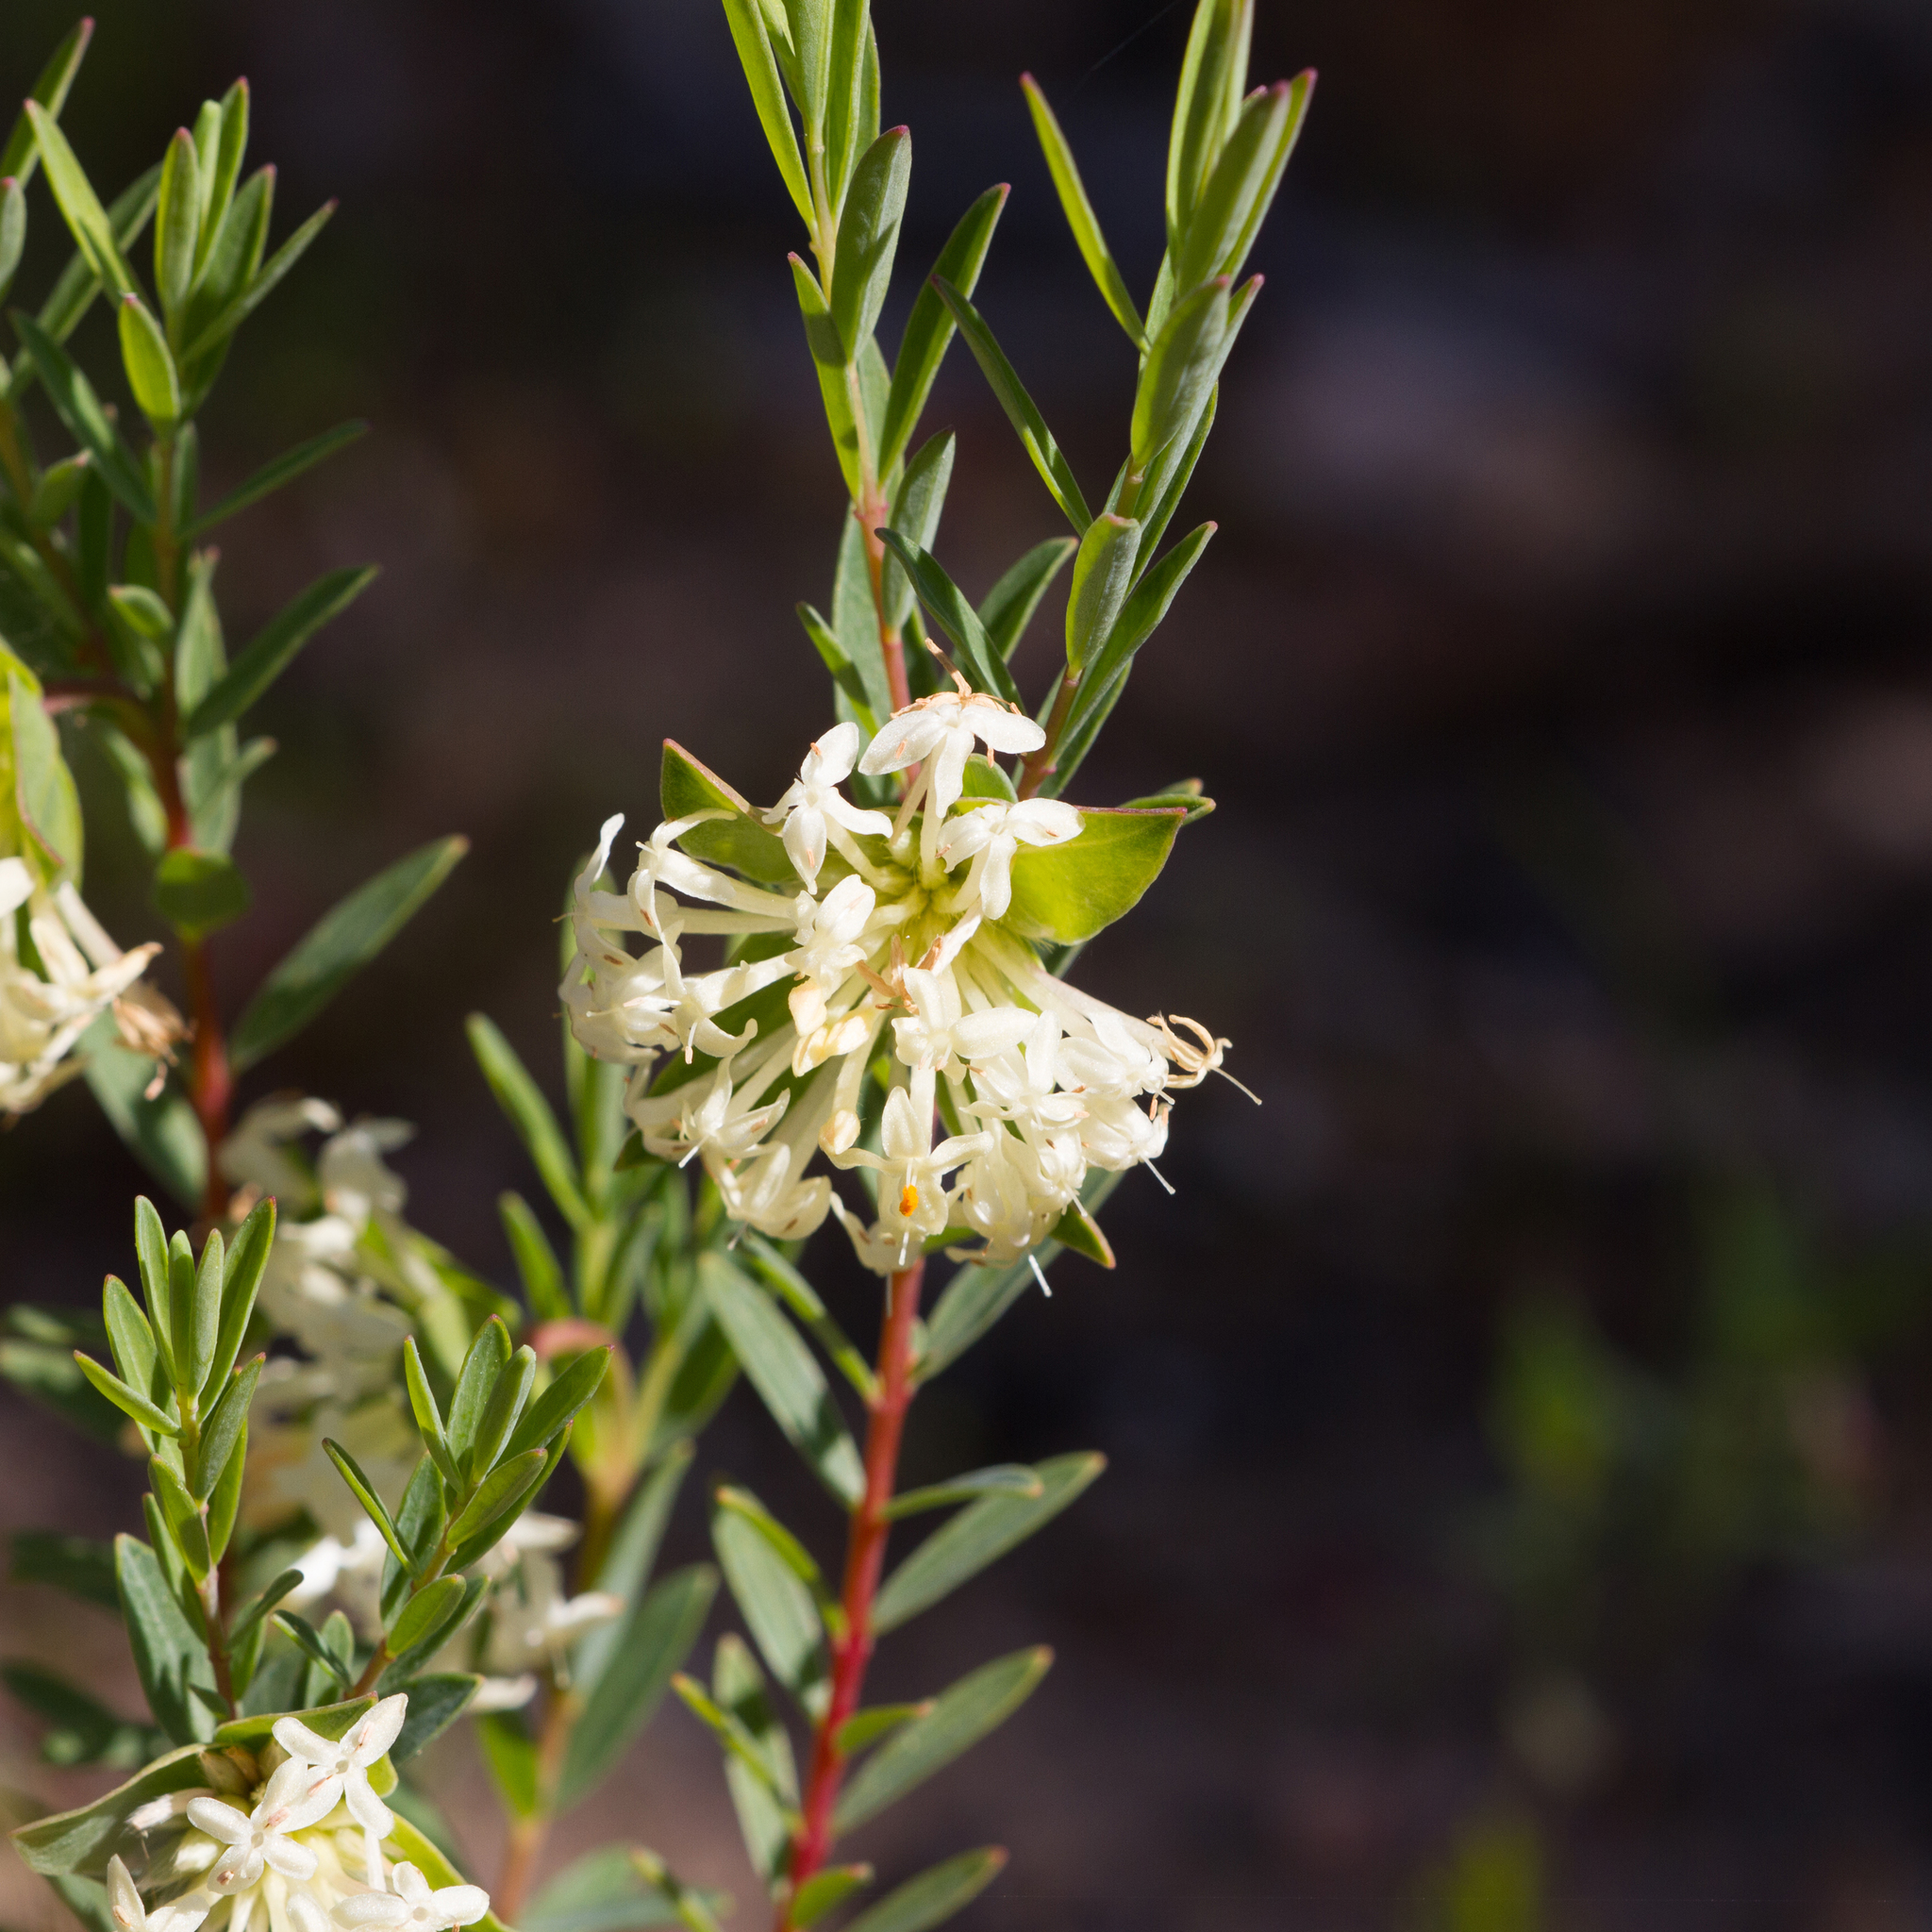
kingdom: Plantae
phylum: Tracheophyta
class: Magnoliopsida
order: Malvales
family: Thymelaeaceae
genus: Pimelea
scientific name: Pimelea linifolia
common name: Queen-of-the-bush
